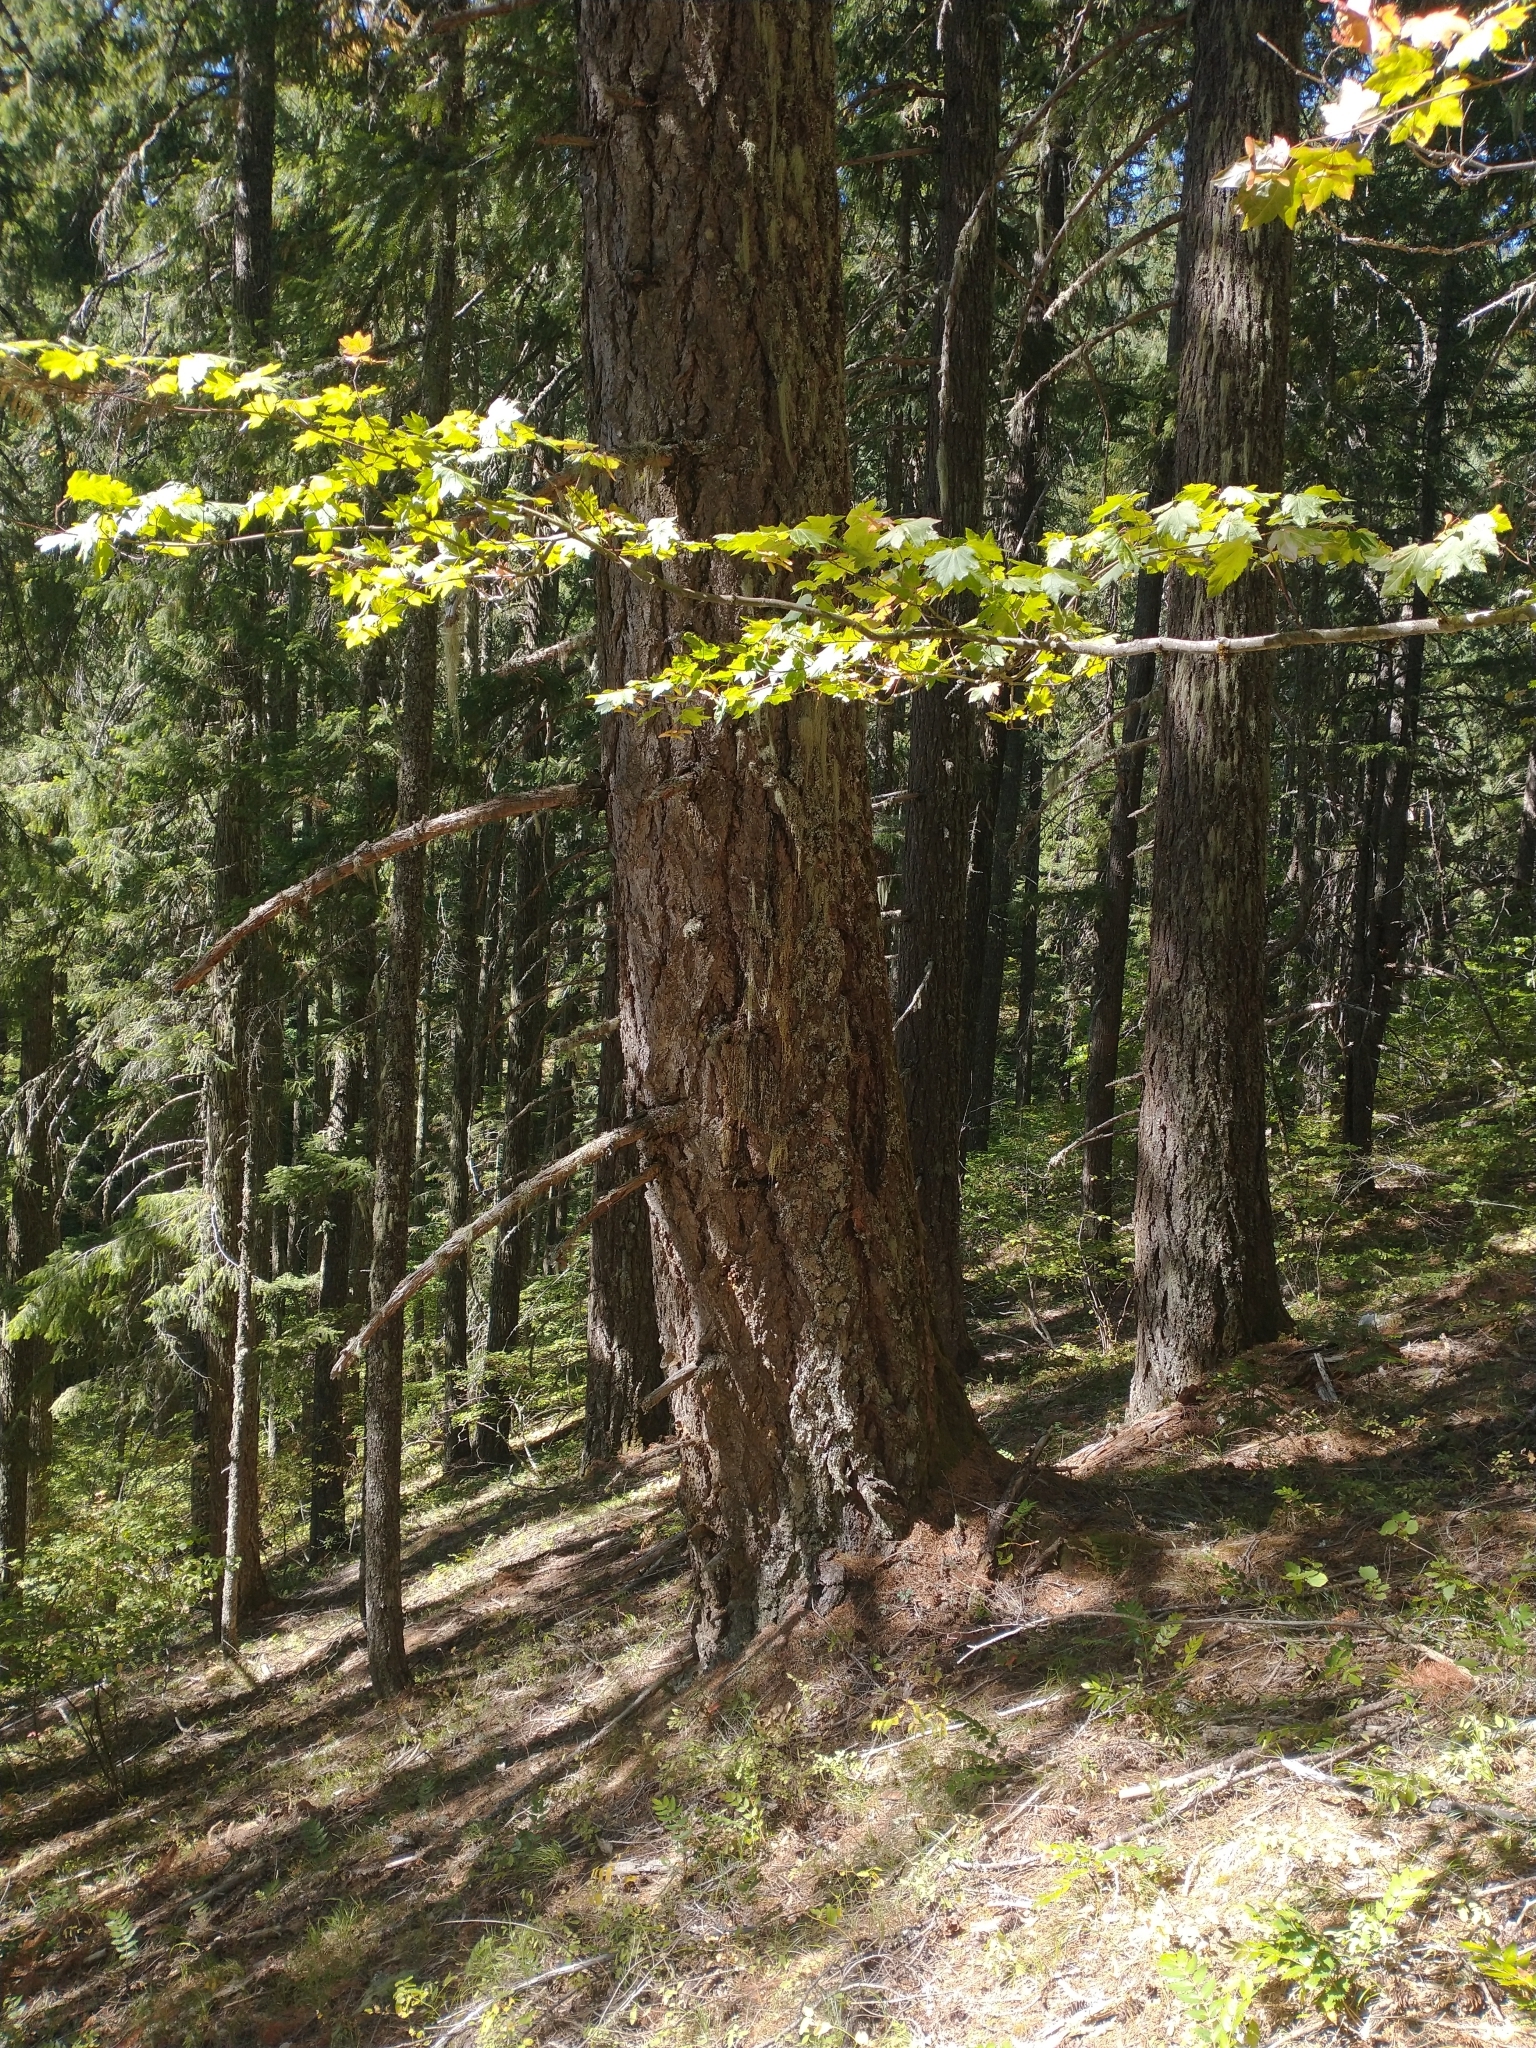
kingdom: Plantae
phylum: Tracheophyta
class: Magnoliopsida
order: Sapindales
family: Sapindaceae
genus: Acer
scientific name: Acer circinatum
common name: Vine maple
